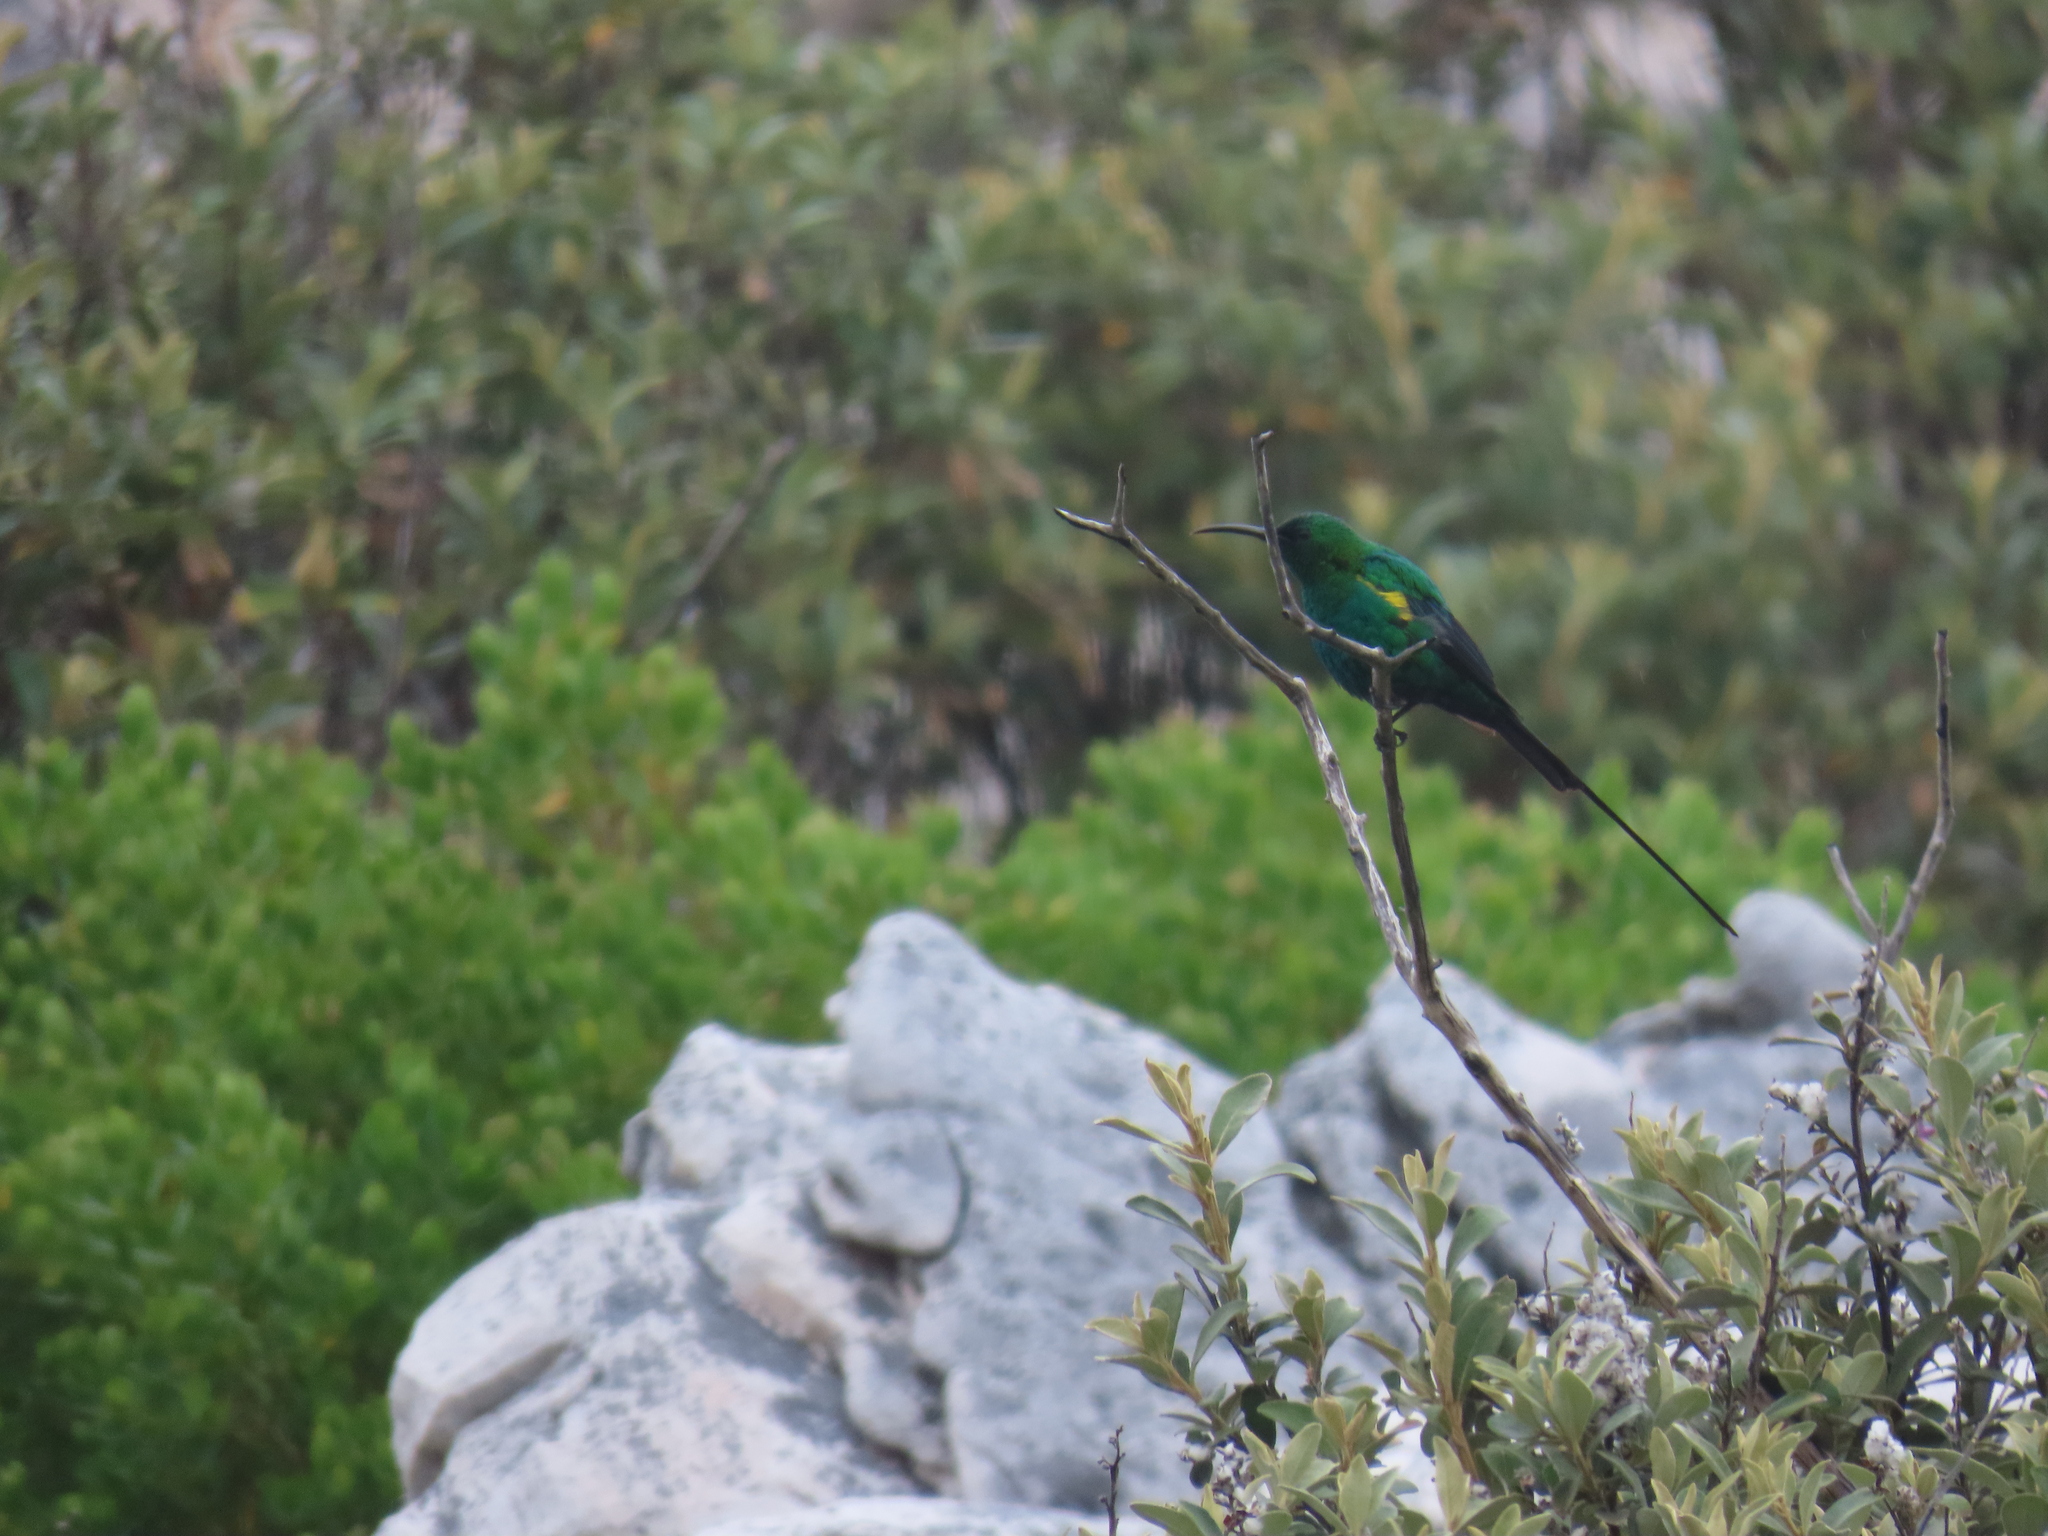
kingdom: Animalia
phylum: Chordata
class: Aves
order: Passeriformes
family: Nectariniidae
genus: Nectarinia
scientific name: Nectarinia famosa
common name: Malachite sunbird
